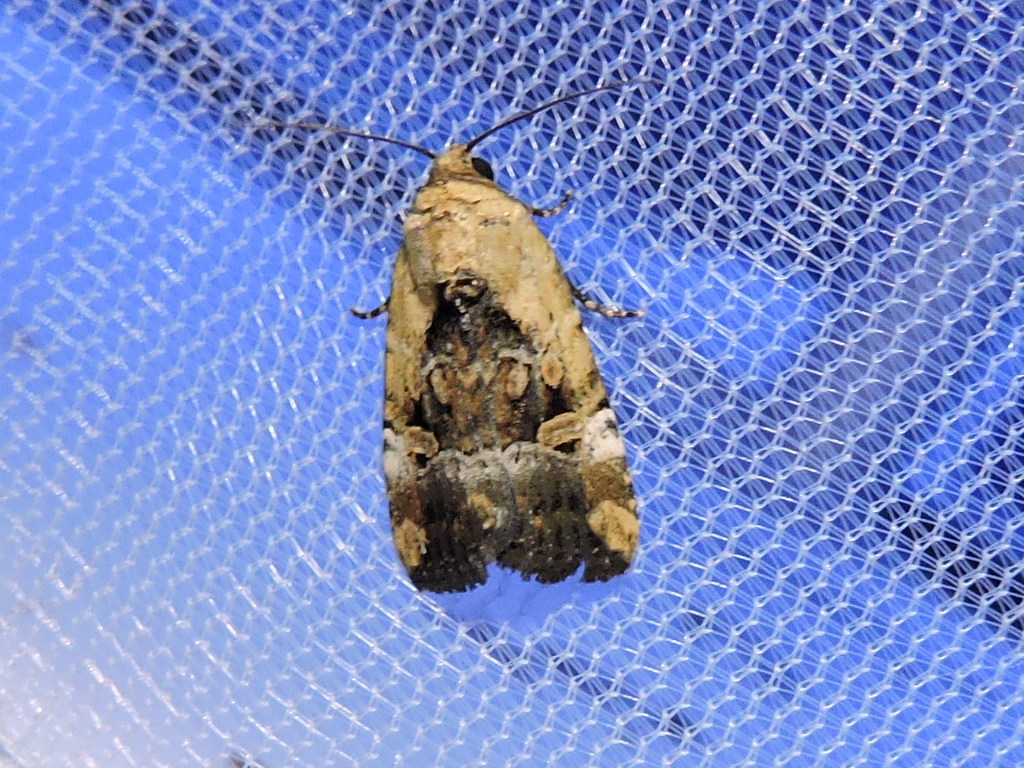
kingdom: Animalia
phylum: Arthropoda
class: Insecta
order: Lepidoptera
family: Noctuidae
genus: Elaphria
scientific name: Elaphria chalcedonia
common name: Chalcedony midget
